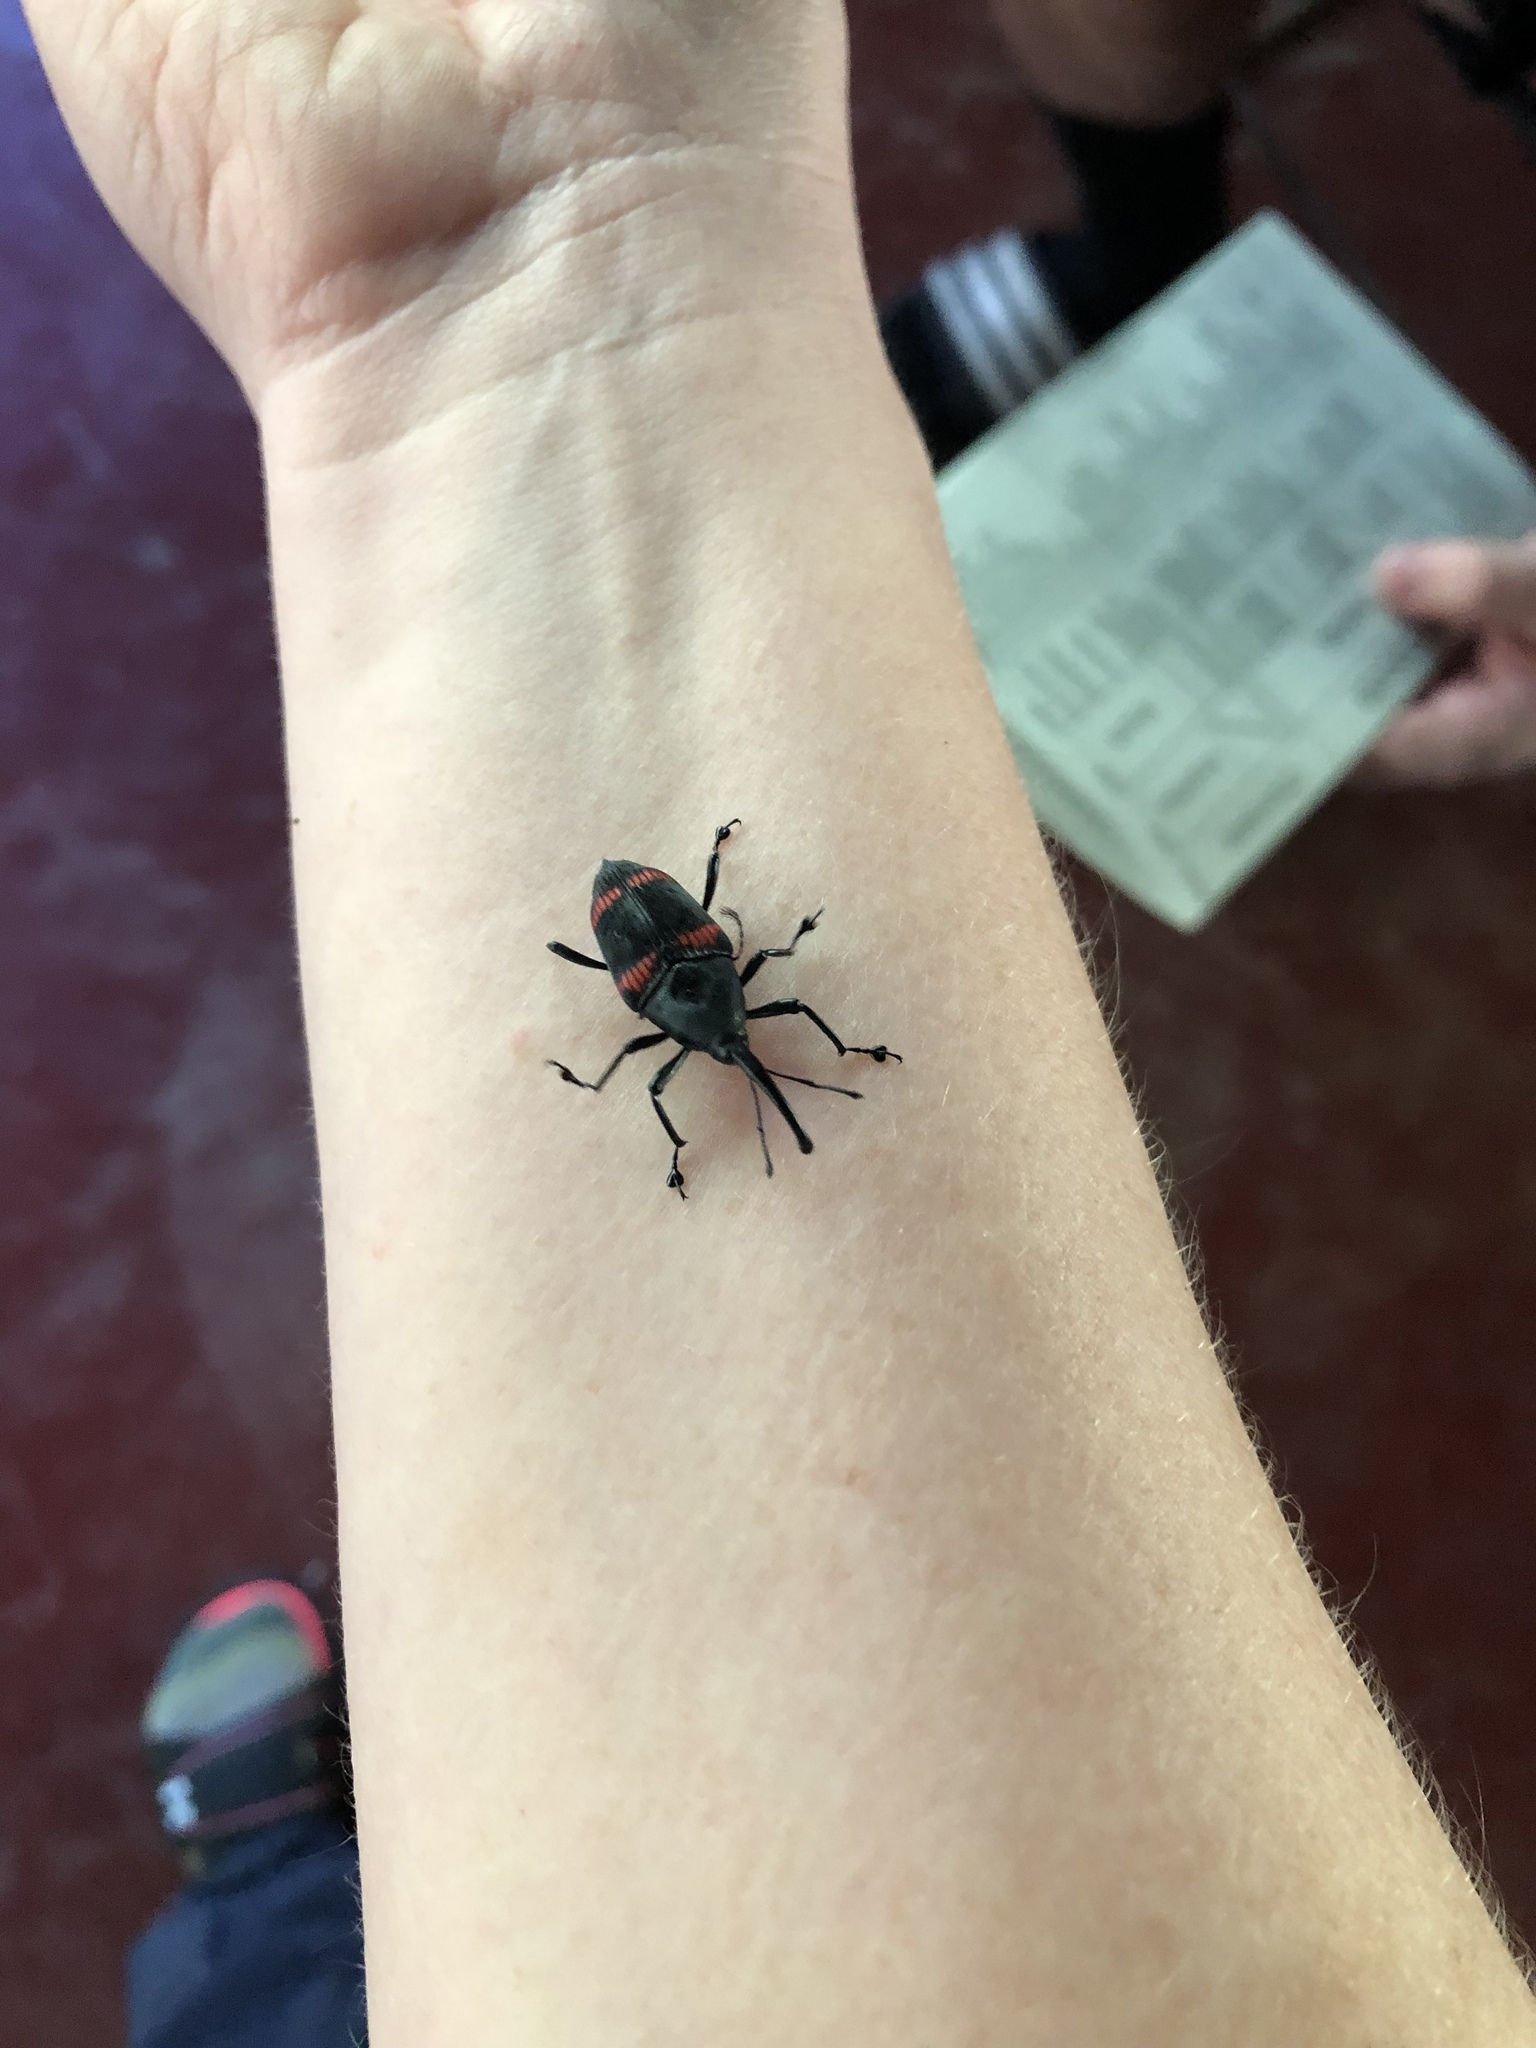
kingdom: Animalia
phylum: Arthropoda
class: Insecta
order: Coleoptera
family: Dryophthoridae
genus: Cactophagus
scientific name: Cactophagus duplocinctus
